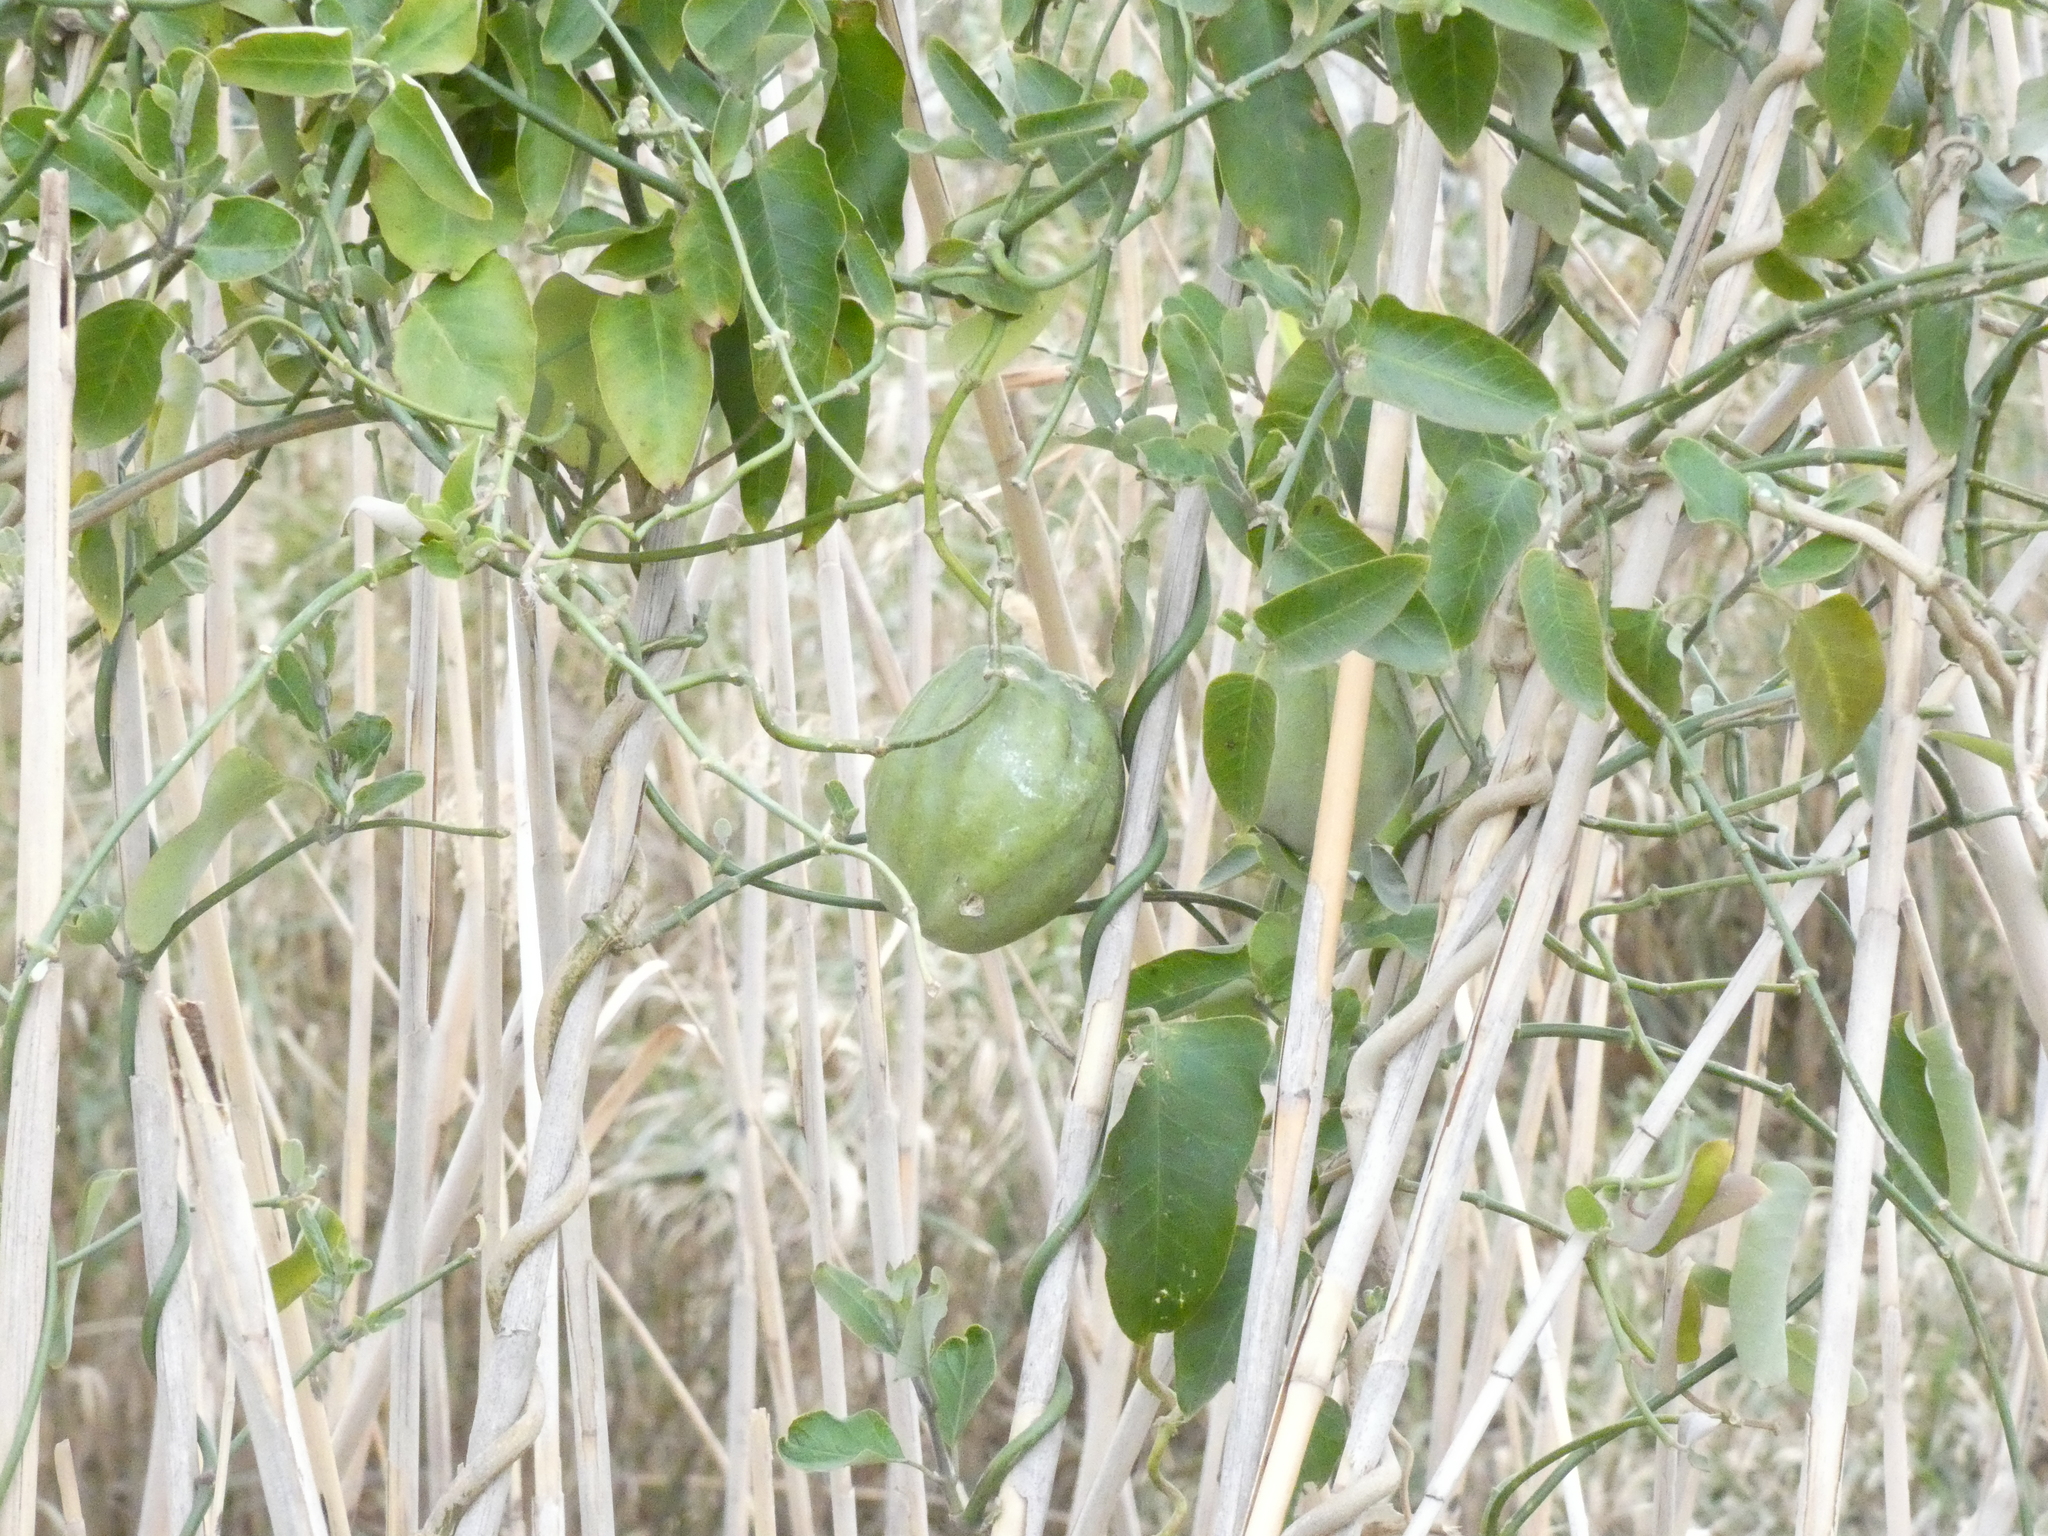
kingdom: Plantae
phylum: Tracheophyta
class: Magnoliopsida
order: Gentianales
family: Apocynaceae
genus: Araujia
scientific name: Araujia sericifera
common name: White bladderflower
